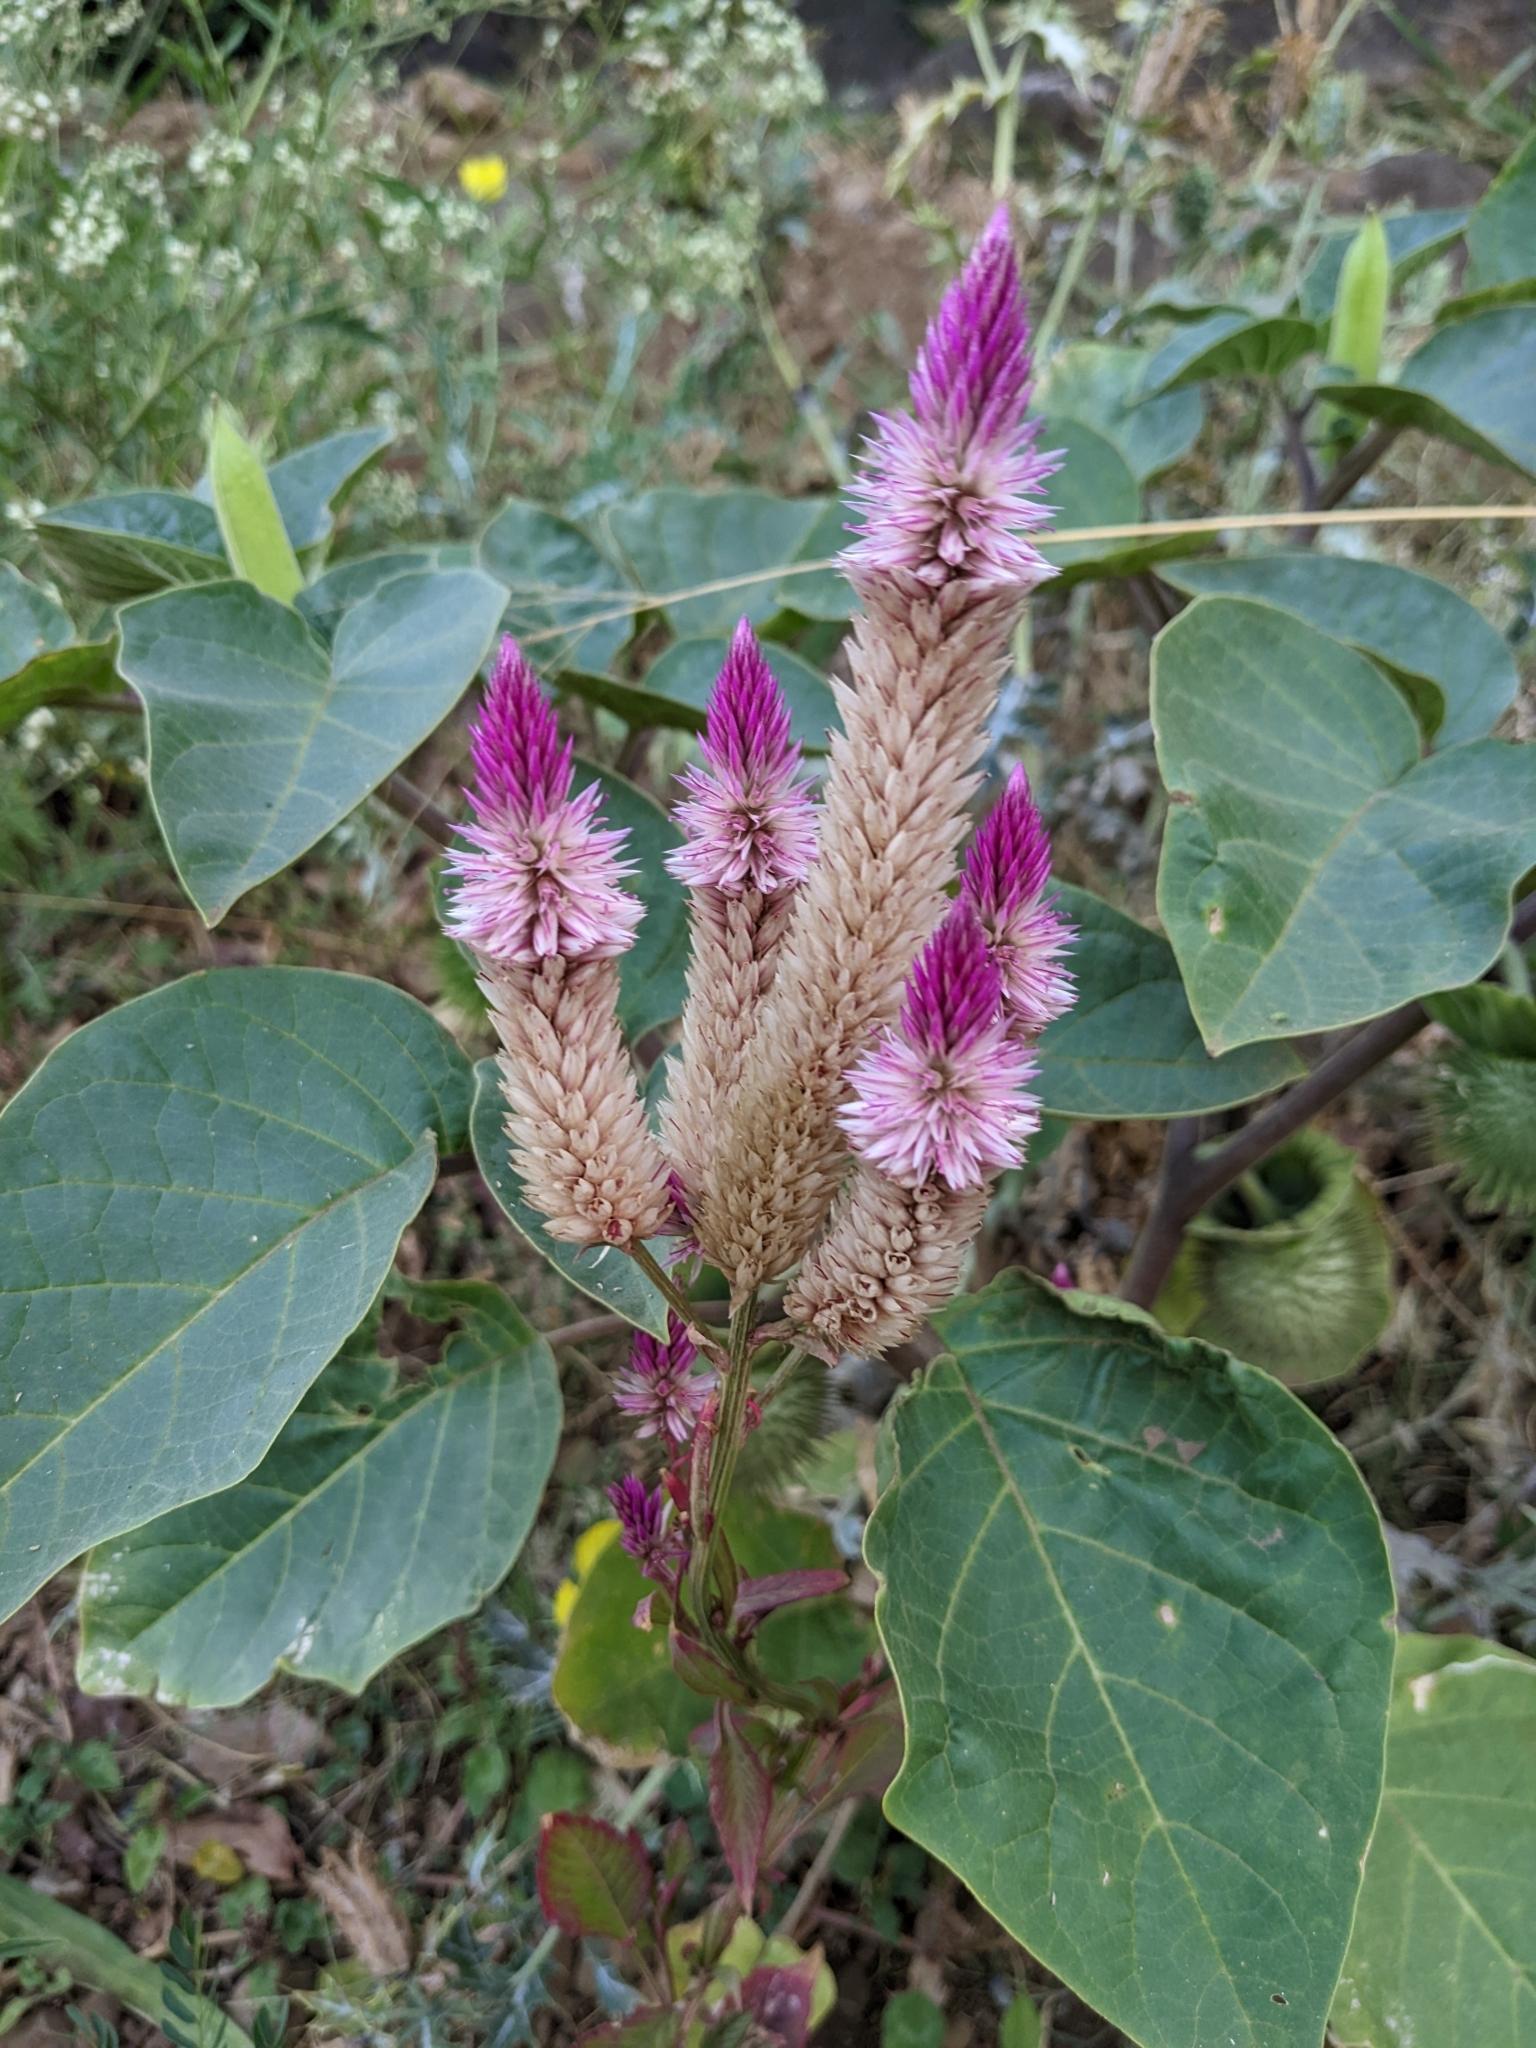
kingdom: Plantae
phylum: Tracheophyta
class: Magnoliopsida
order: Caryophyllales
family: Amaranthaceae
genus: Celosia
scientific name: Celosia argentea
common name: Feather cockscomb
